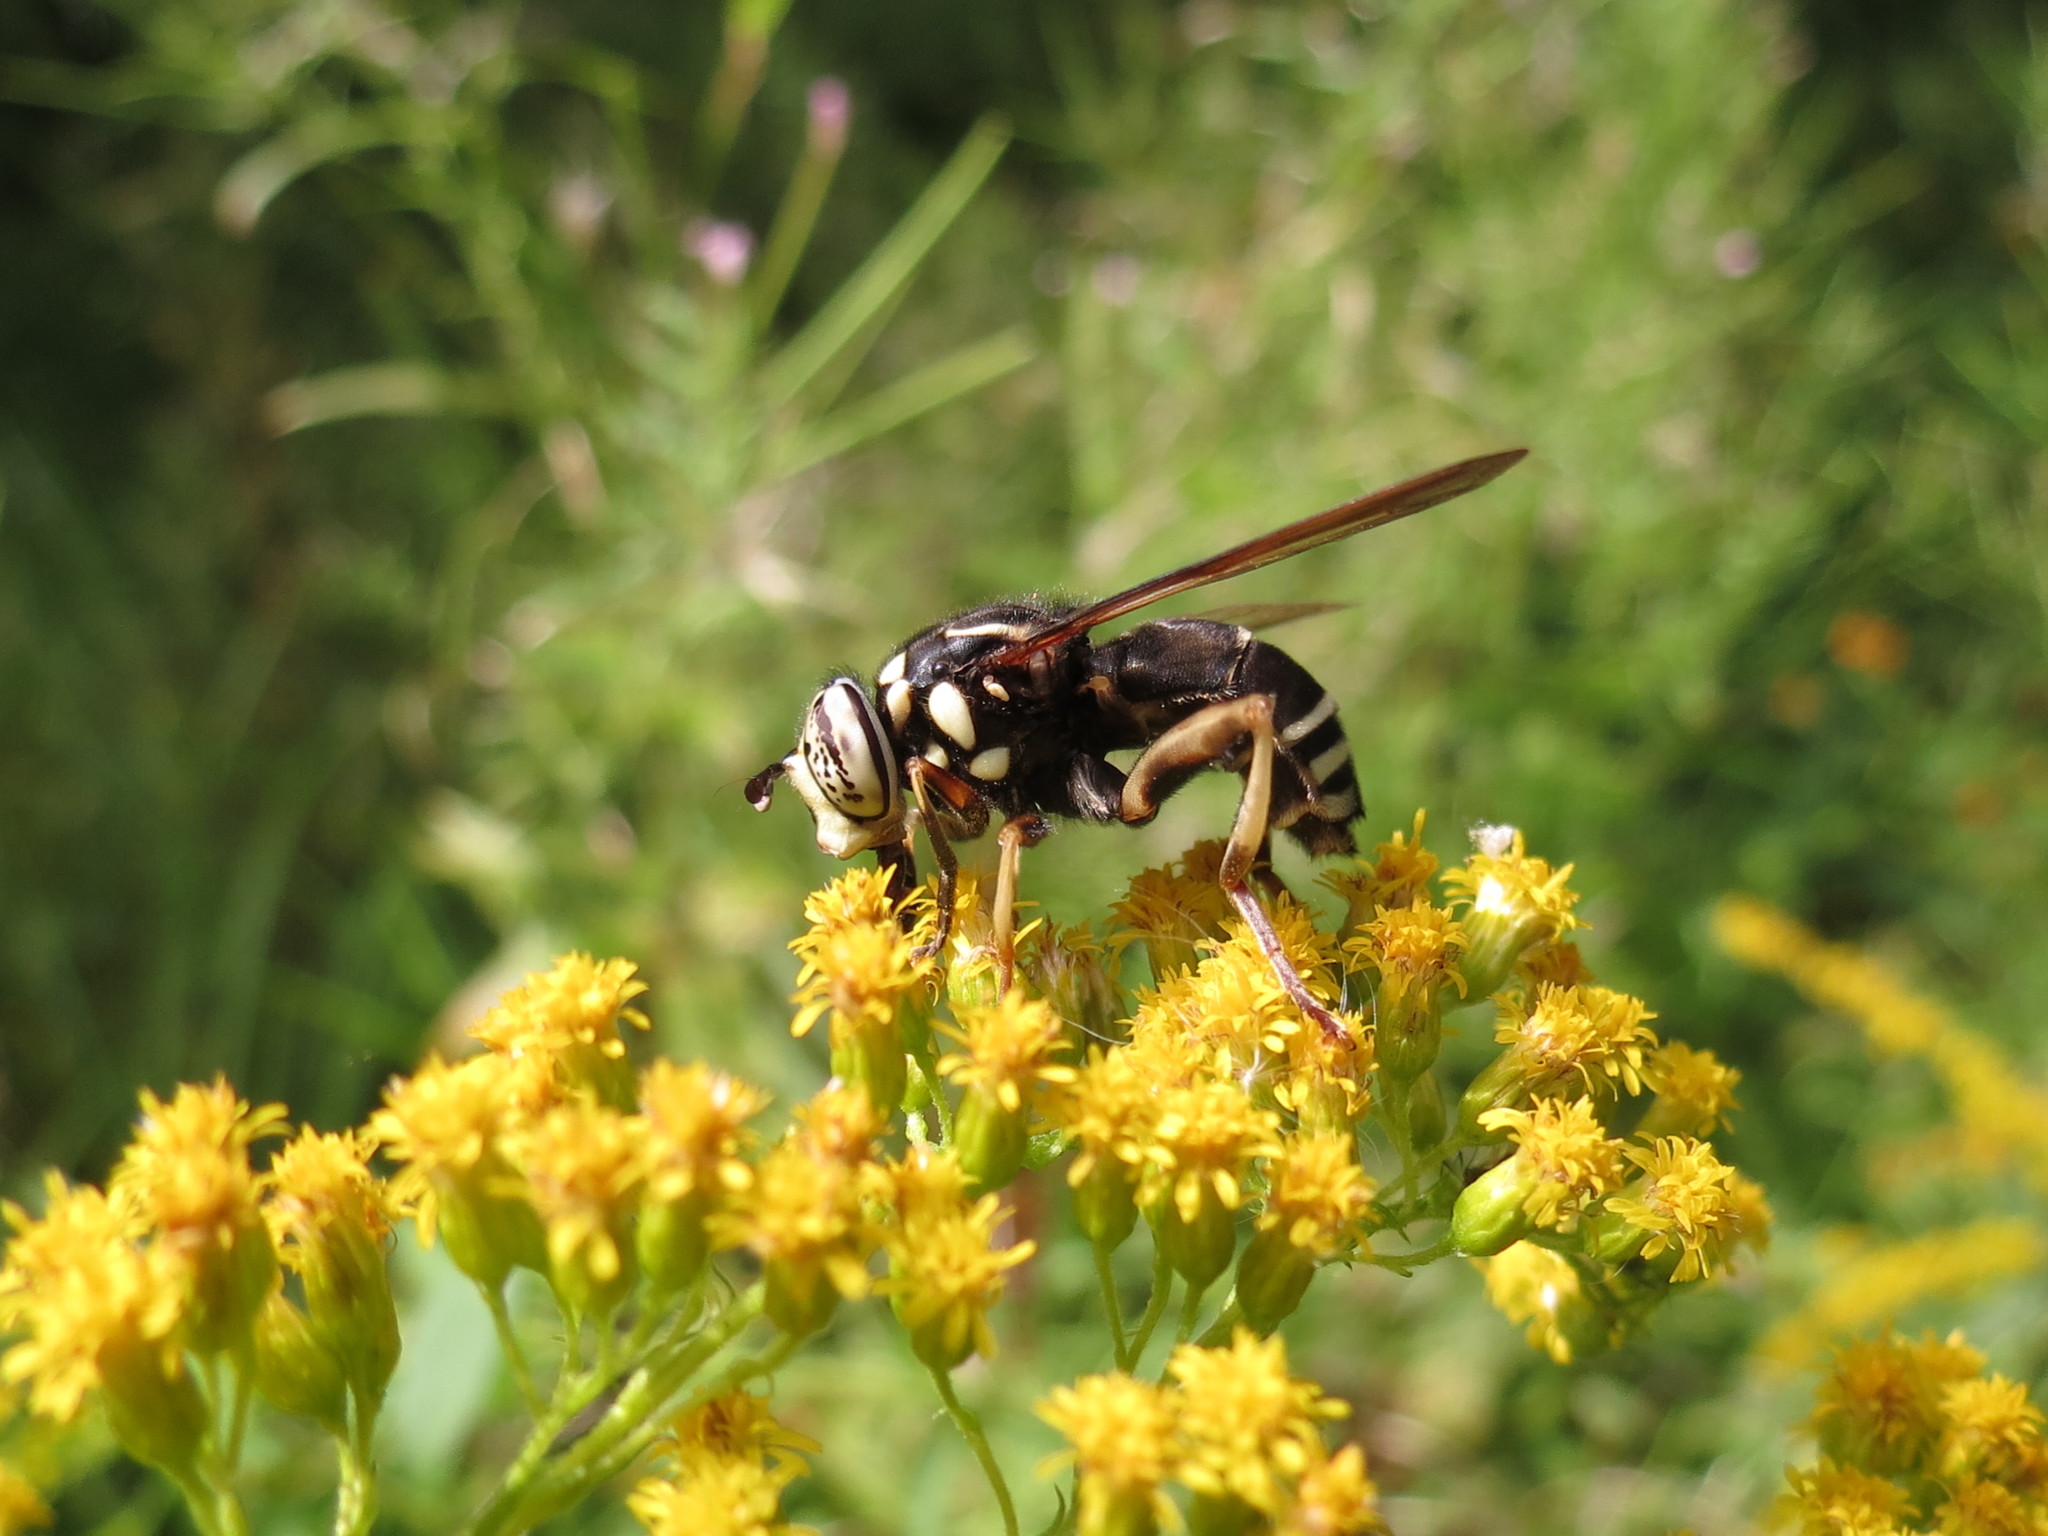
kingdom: Animalia
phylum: Arthropoda
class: Insecta
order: Diptera
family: Syrphidae
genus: Spilomyia
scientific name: Spilomyia fusca
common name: Bald-faced hornet fly
